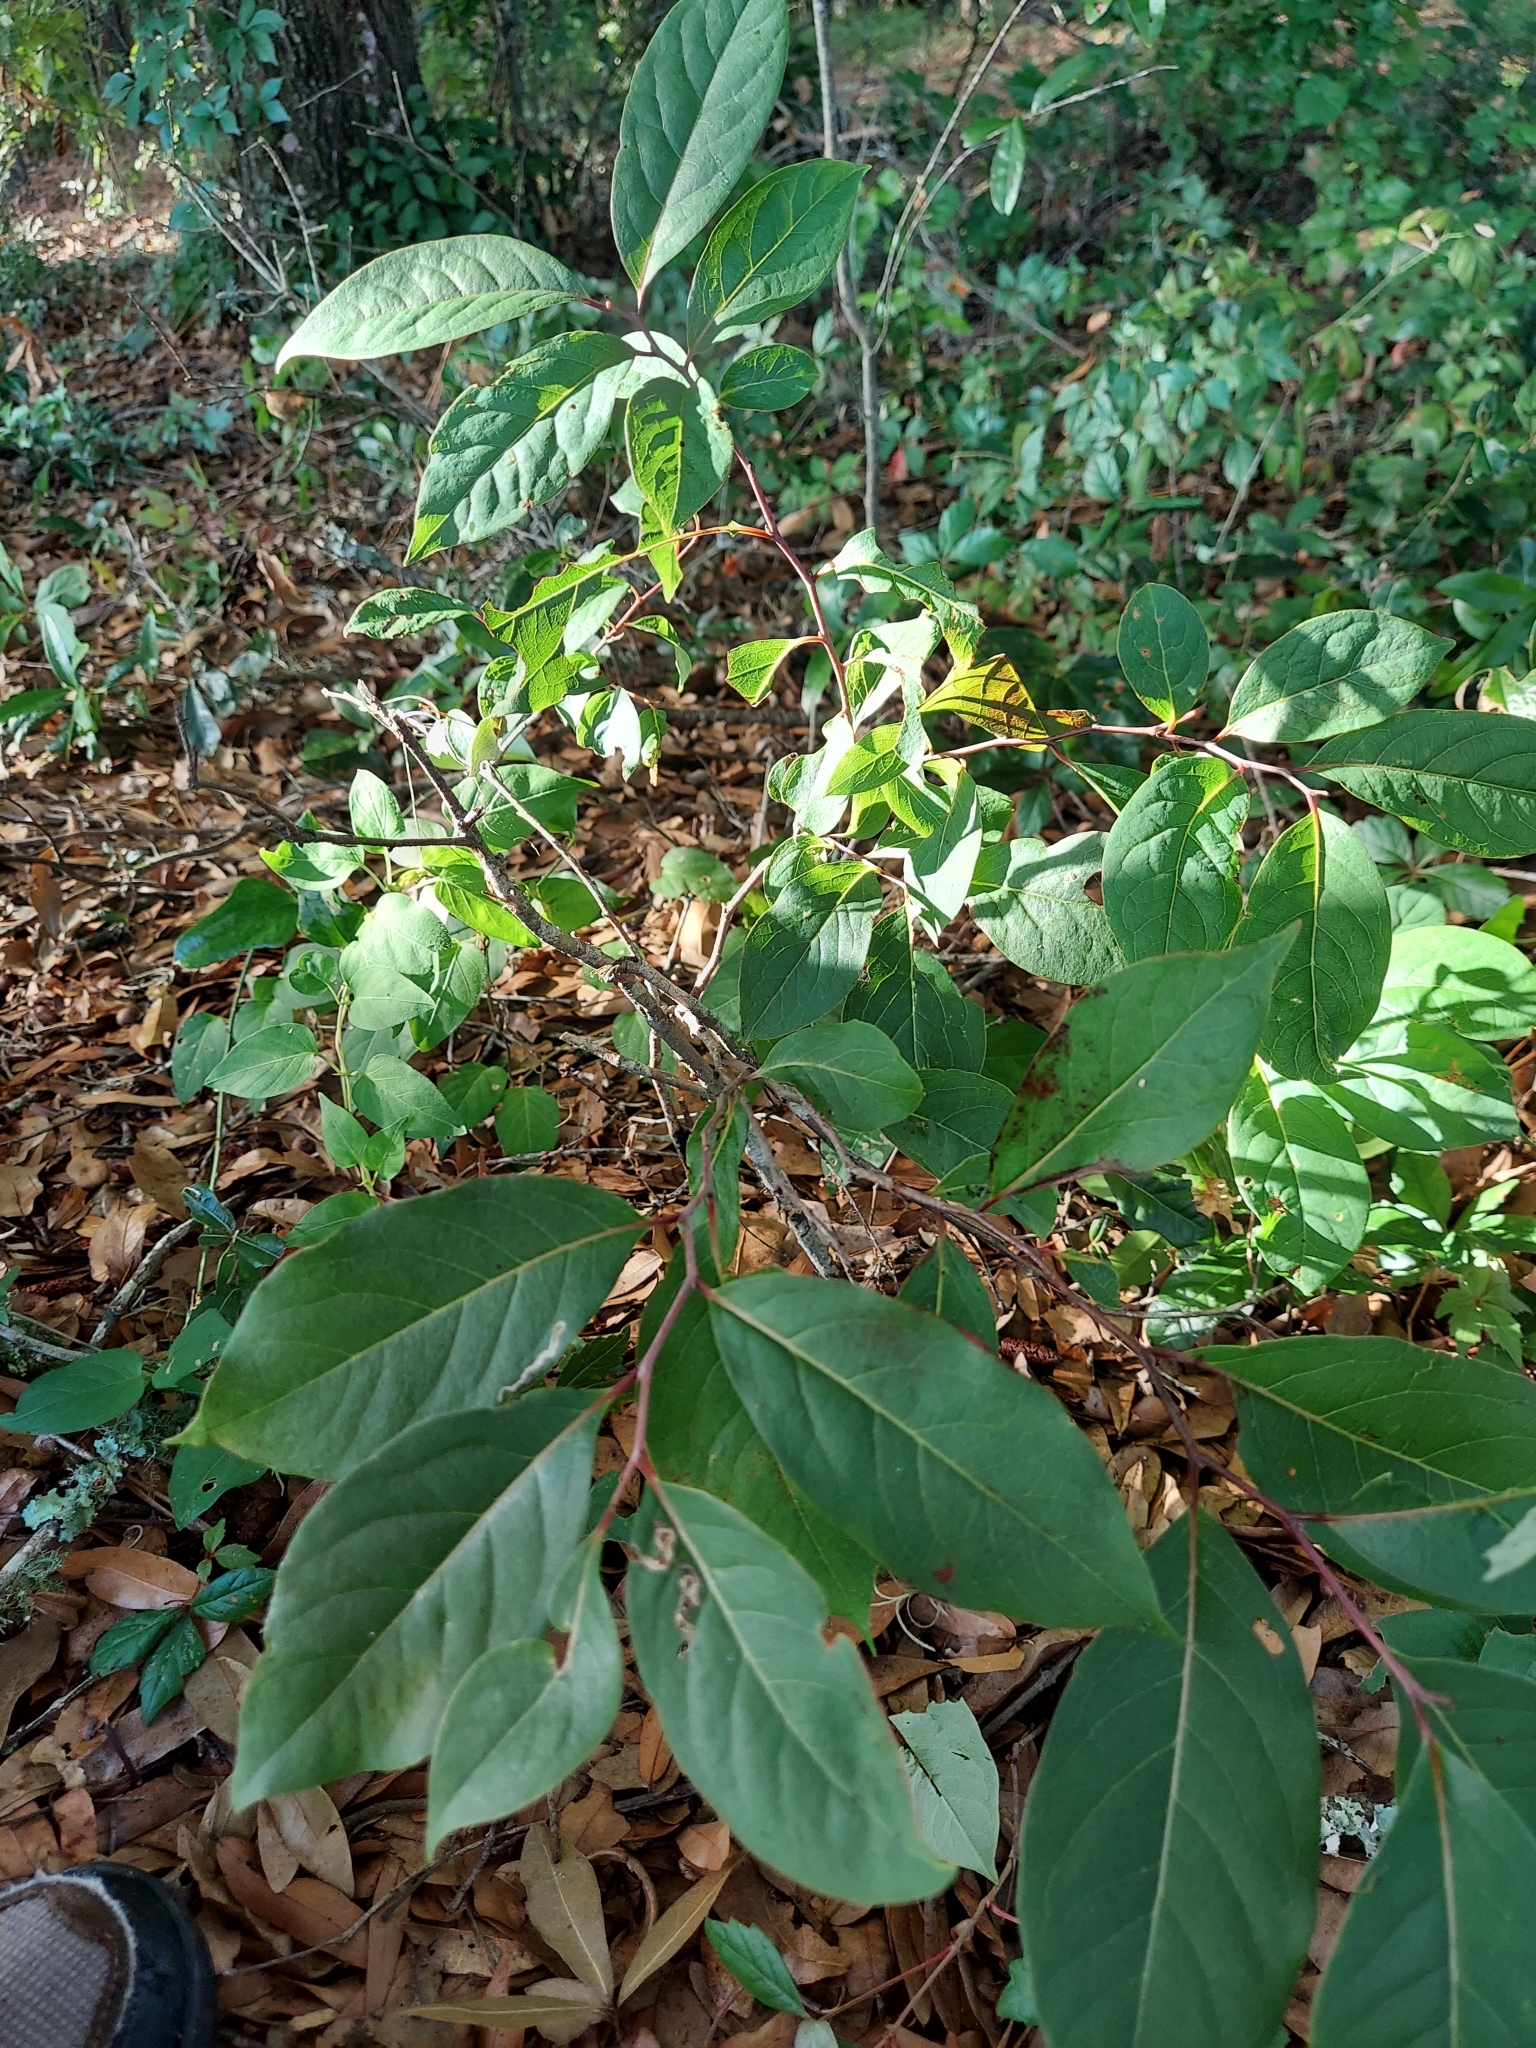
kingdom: Plantae
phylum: Tracheophyta
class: Magnoliopsida
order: Ericales
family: Ebenaceae
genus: Diospyros
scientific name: Diospyros virginiana
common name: Persimmon
